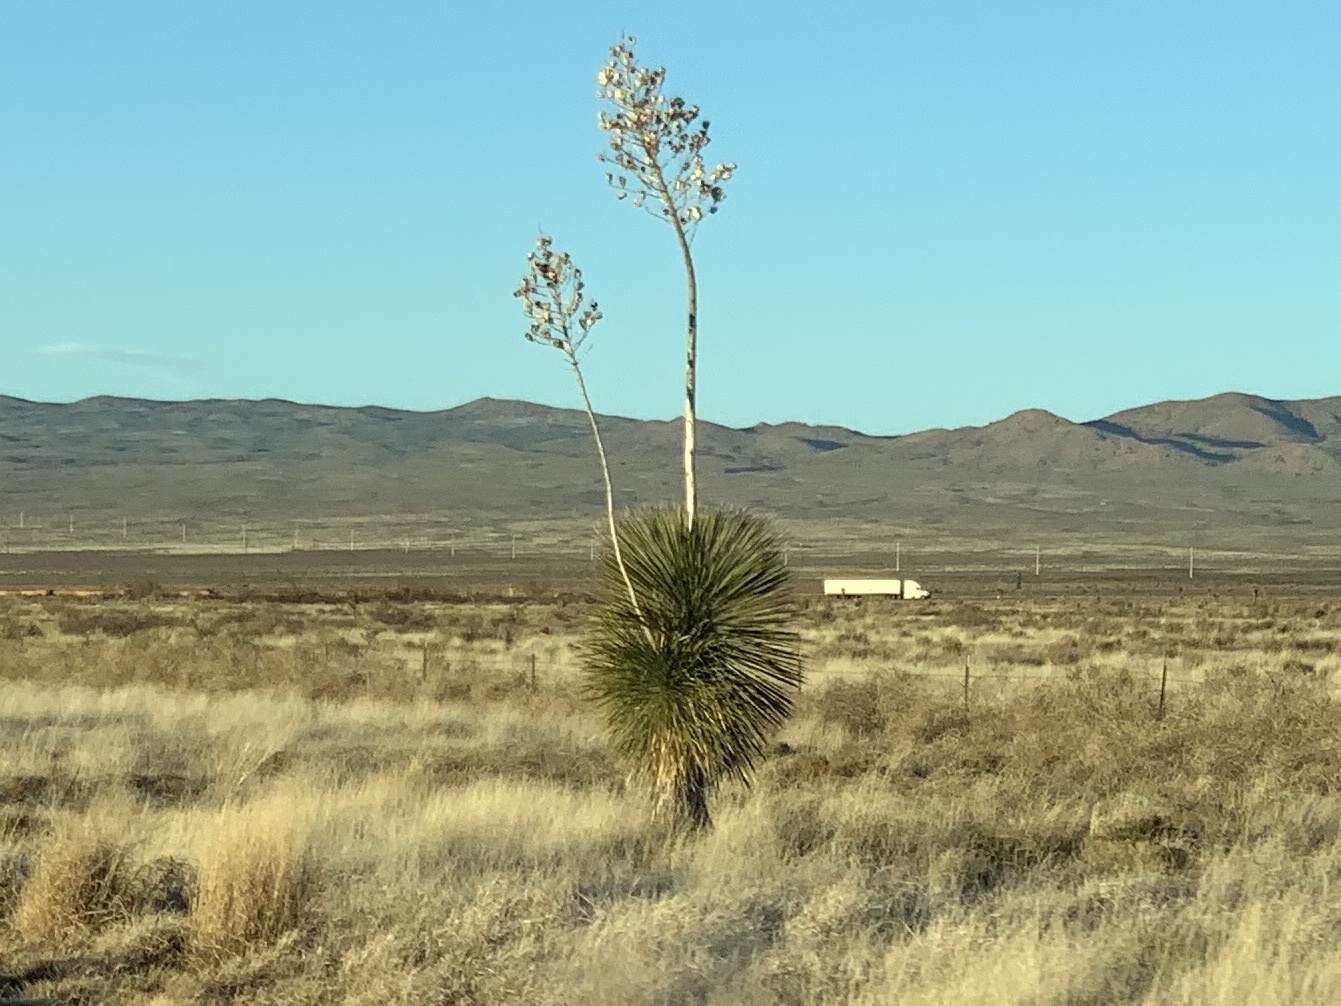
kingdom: Plantae
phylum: Tracheophyta
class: Liliopsida
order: Asparagales
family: Asparagaceae
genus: Yucca
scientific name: Yucca elata
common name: Palmella
